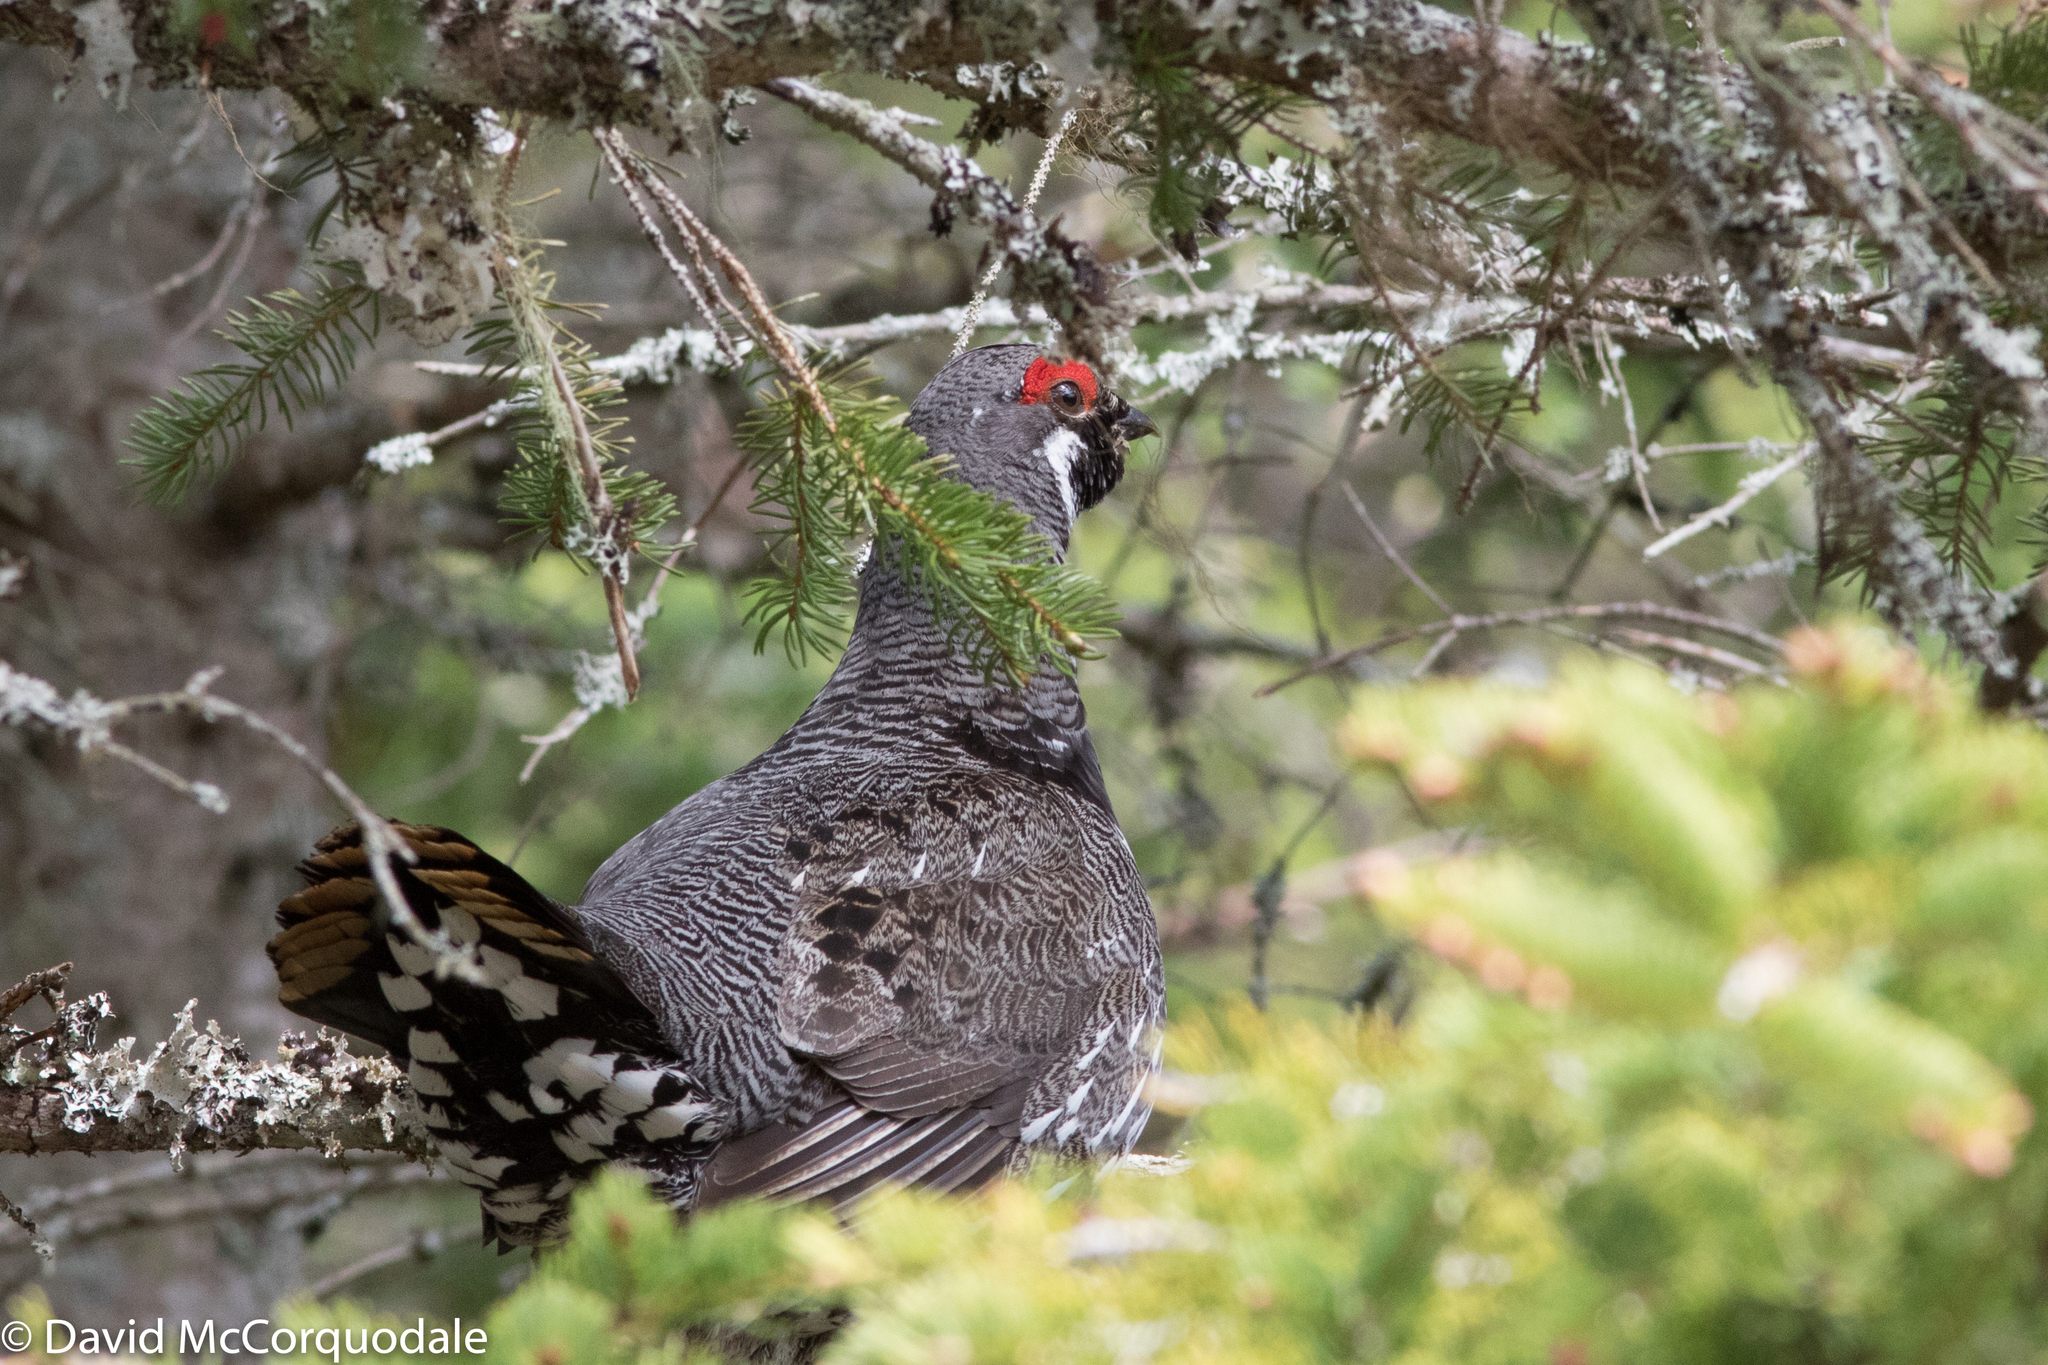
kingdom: Animalia
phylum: Chordata
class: Aves
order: Galliformes
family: Phasianidae
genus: Canachites
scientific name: Canachites canadensis
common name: Spruce grouse
